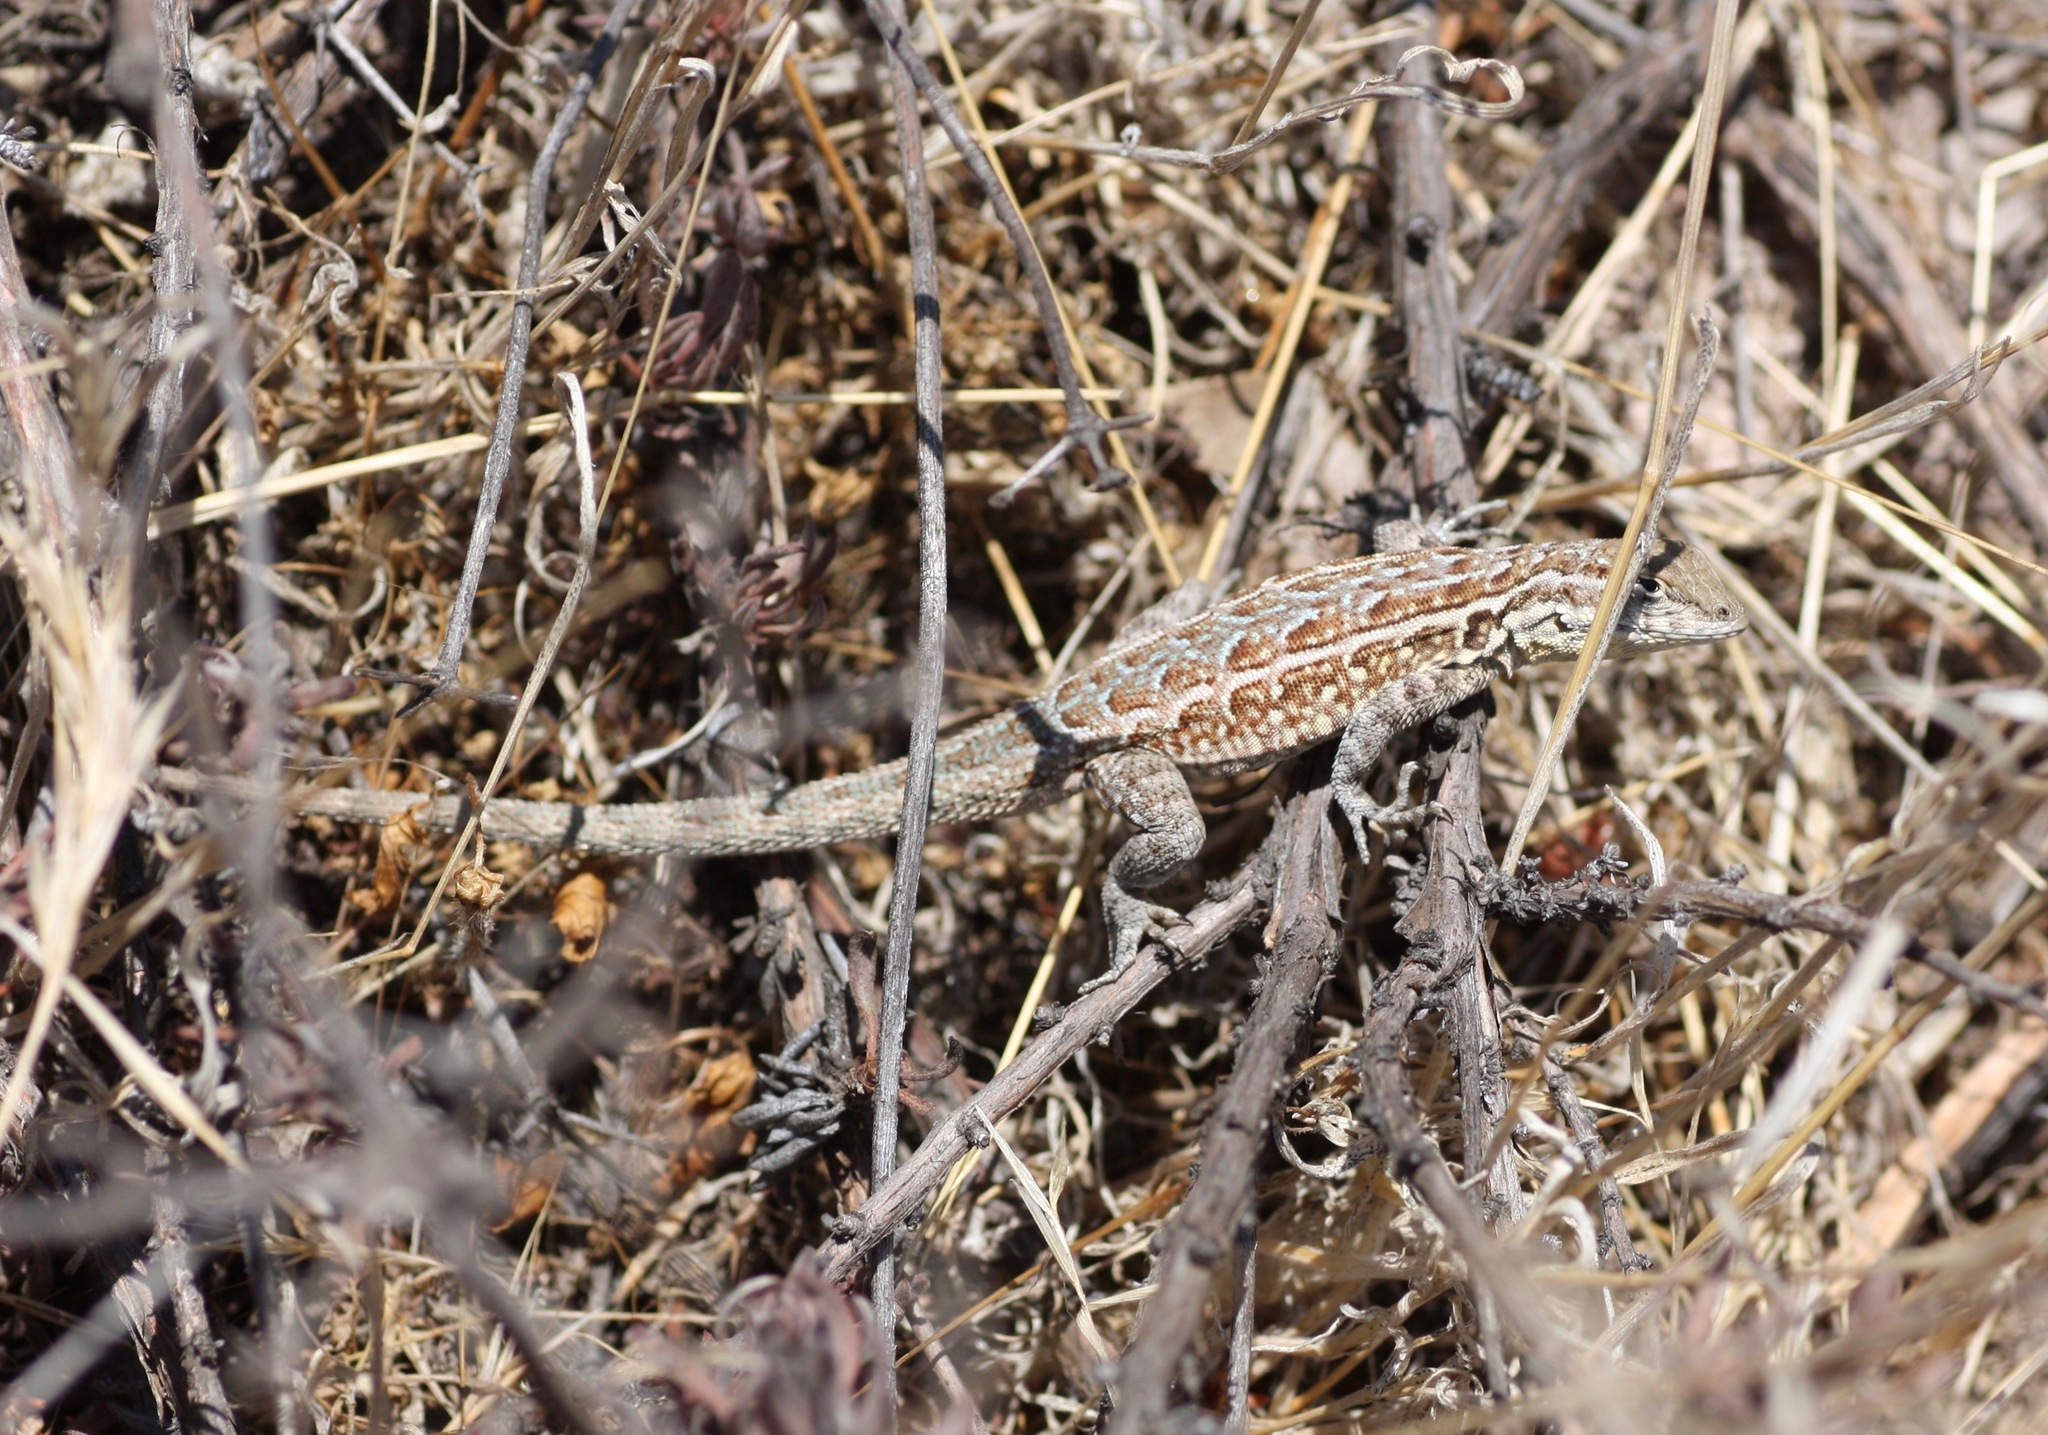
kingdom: Animalia
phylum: Chordata
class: Squamata
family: Phrynosomatidae
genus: Uta
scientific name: Uta stansburiana
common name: Side-blotched lizard
